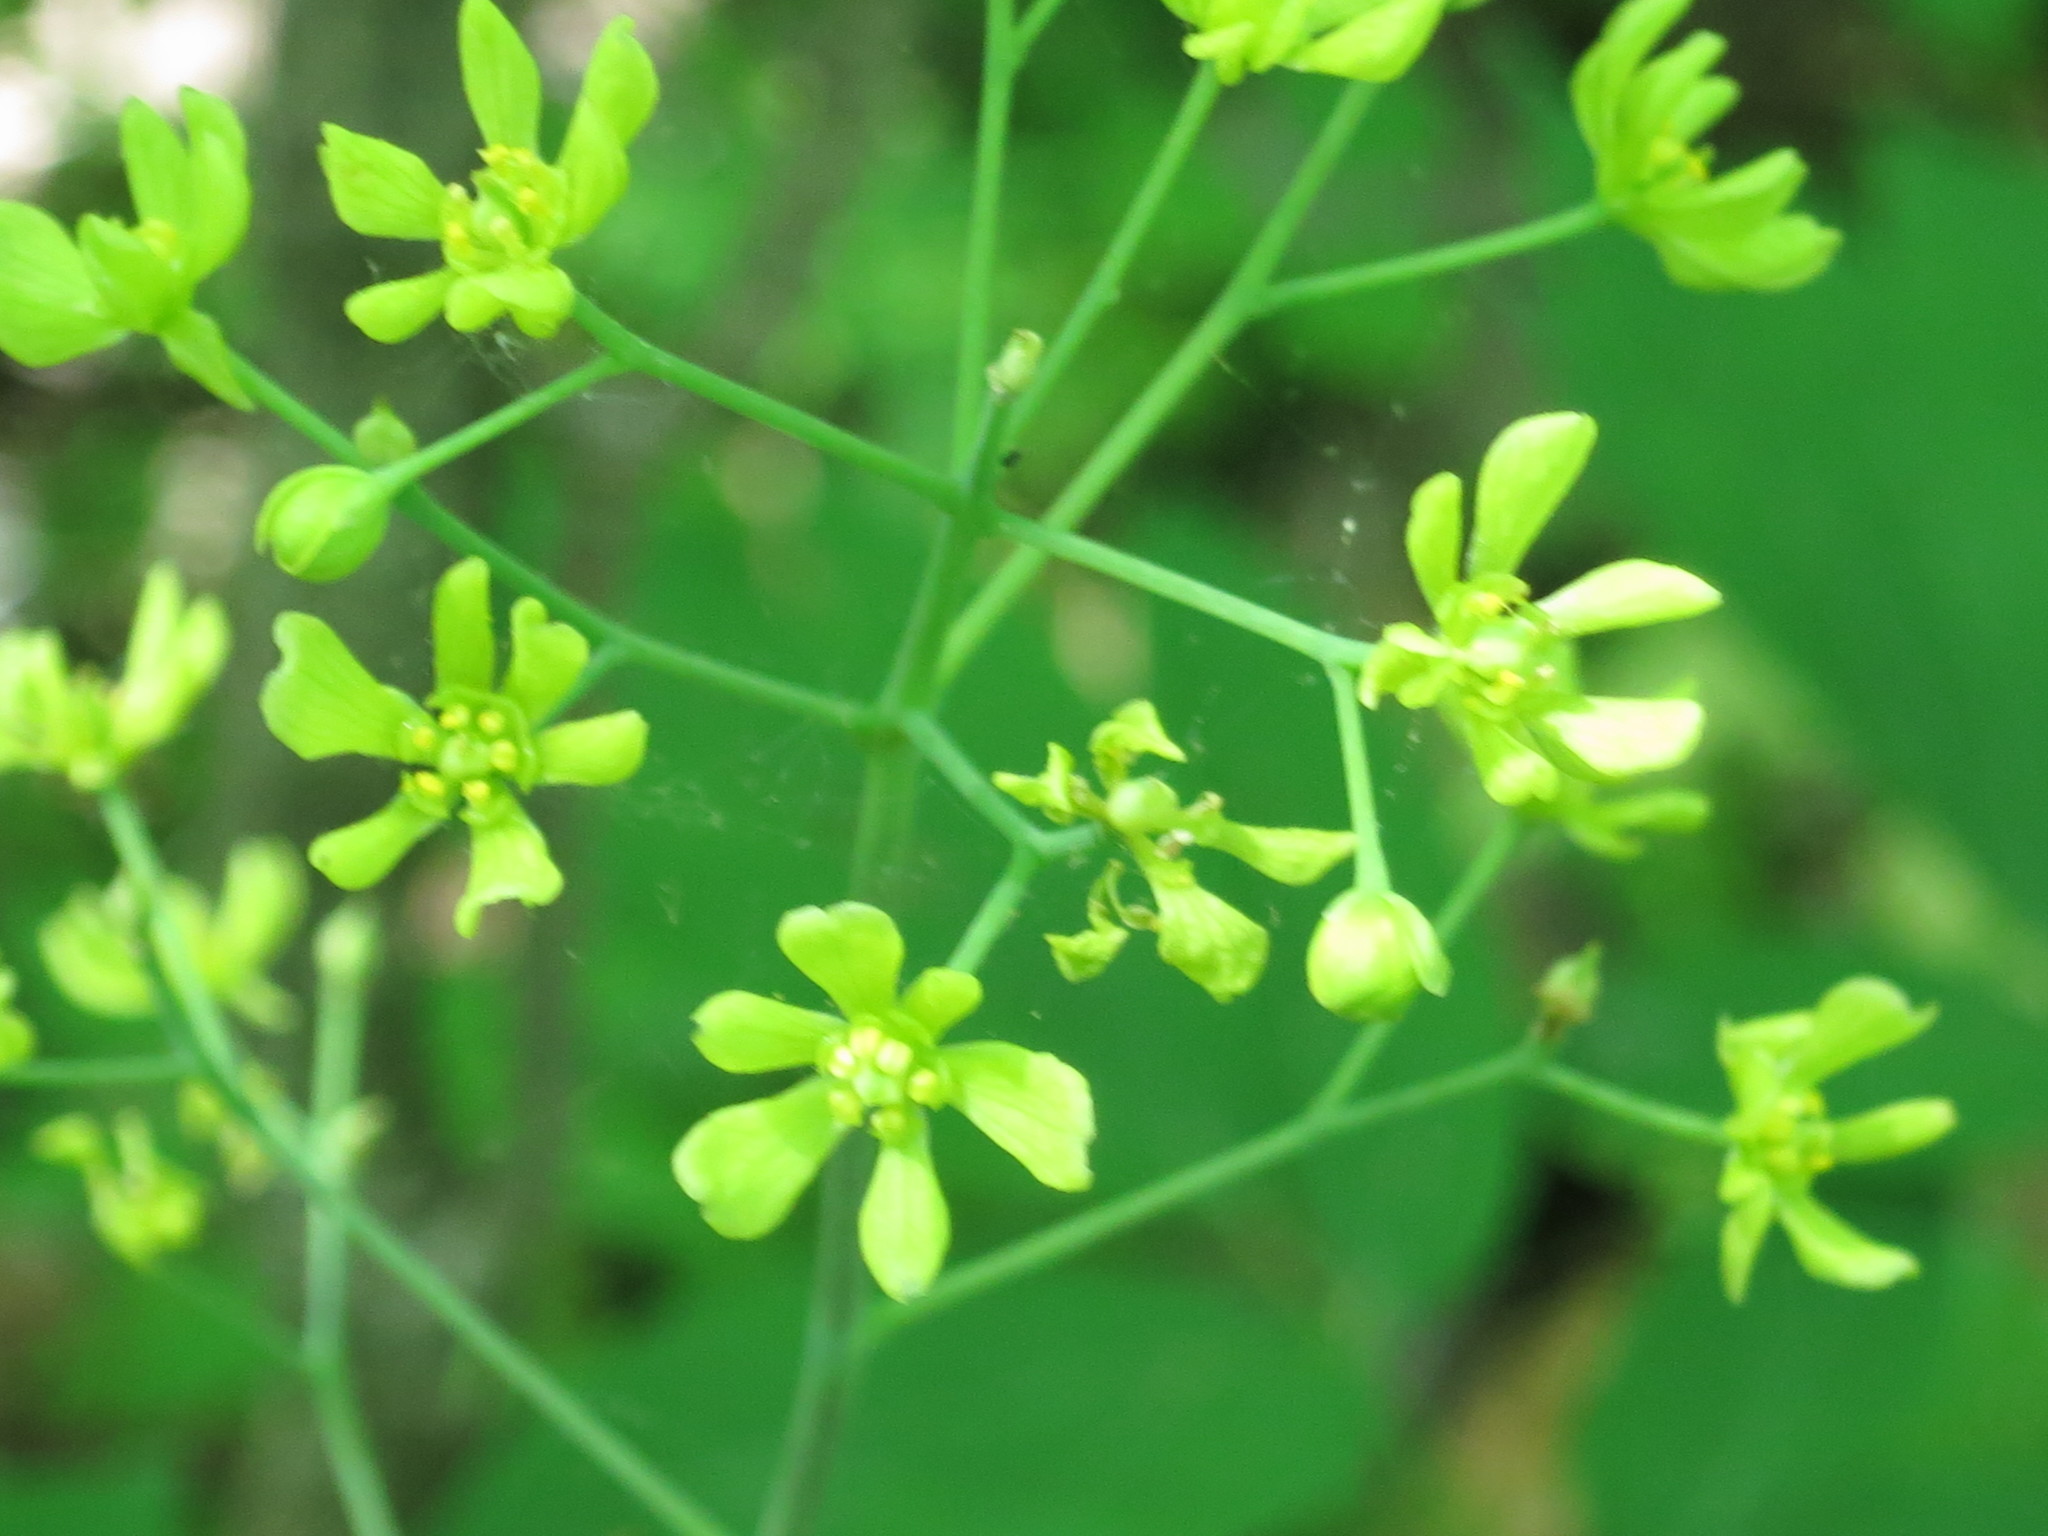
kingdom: Plantae
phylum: Tracheophyta
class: Magnoliopsida
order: Ranunculales
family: Berberidaceae
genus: Caulophyllum
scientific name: Caulophyllum robustum
